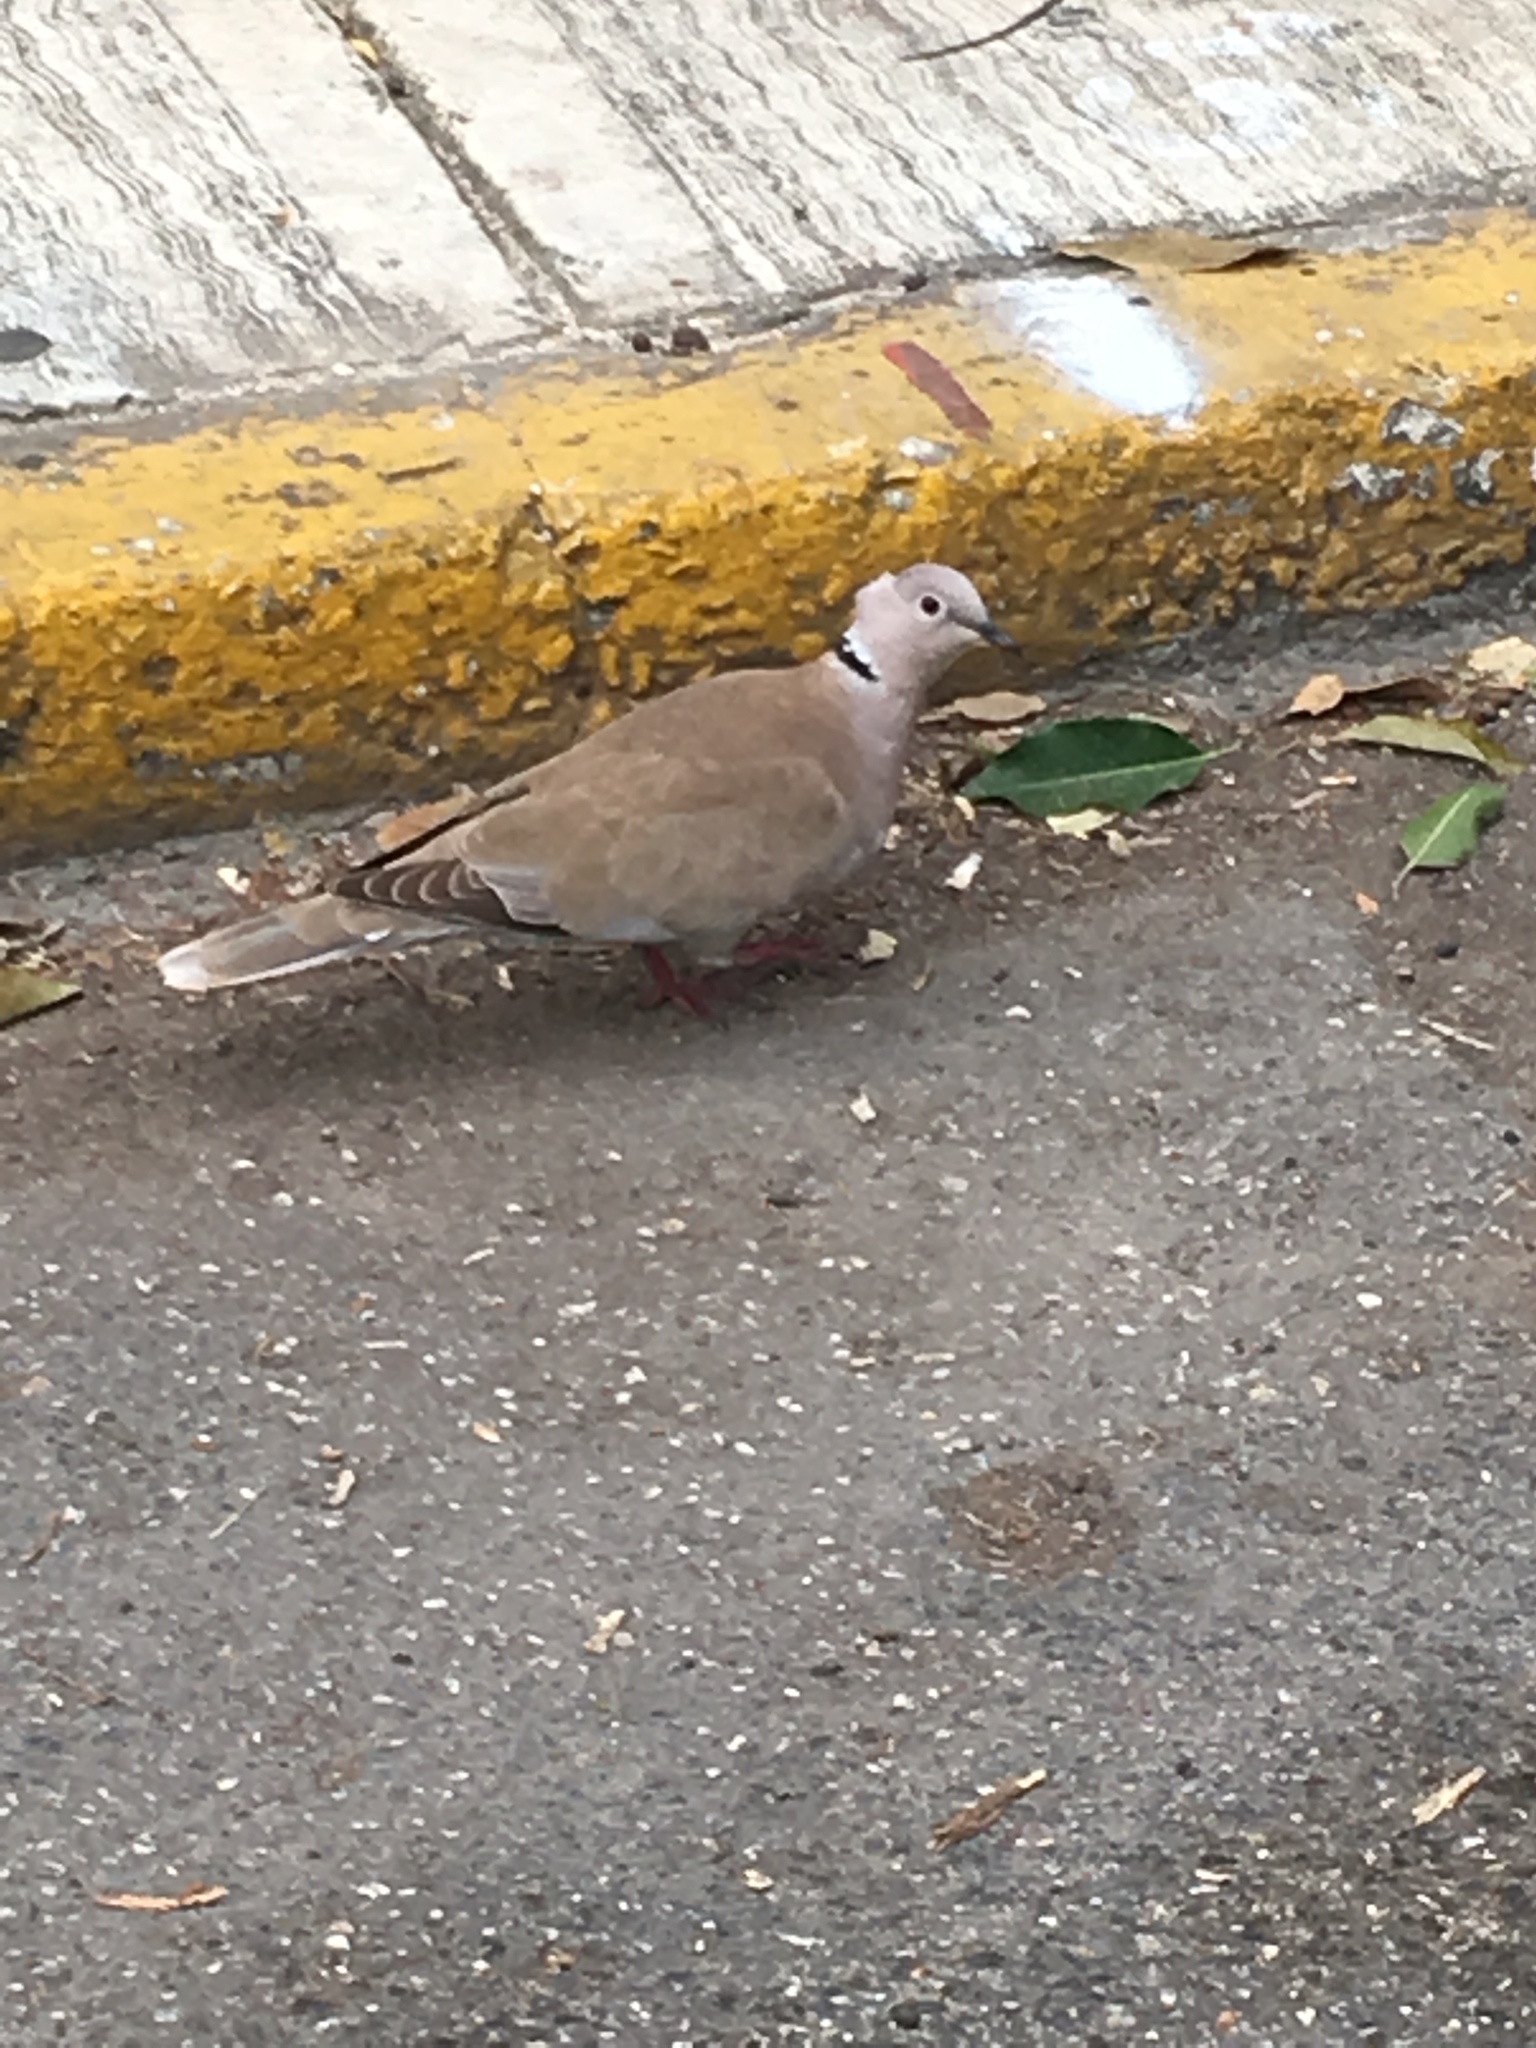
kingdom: Animalia
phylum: Chordata
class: Aves
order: Columbiformes
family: Columbidae
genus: Streptopelia
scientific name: Streptopelia decaocto
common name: Eurasian collared dove
